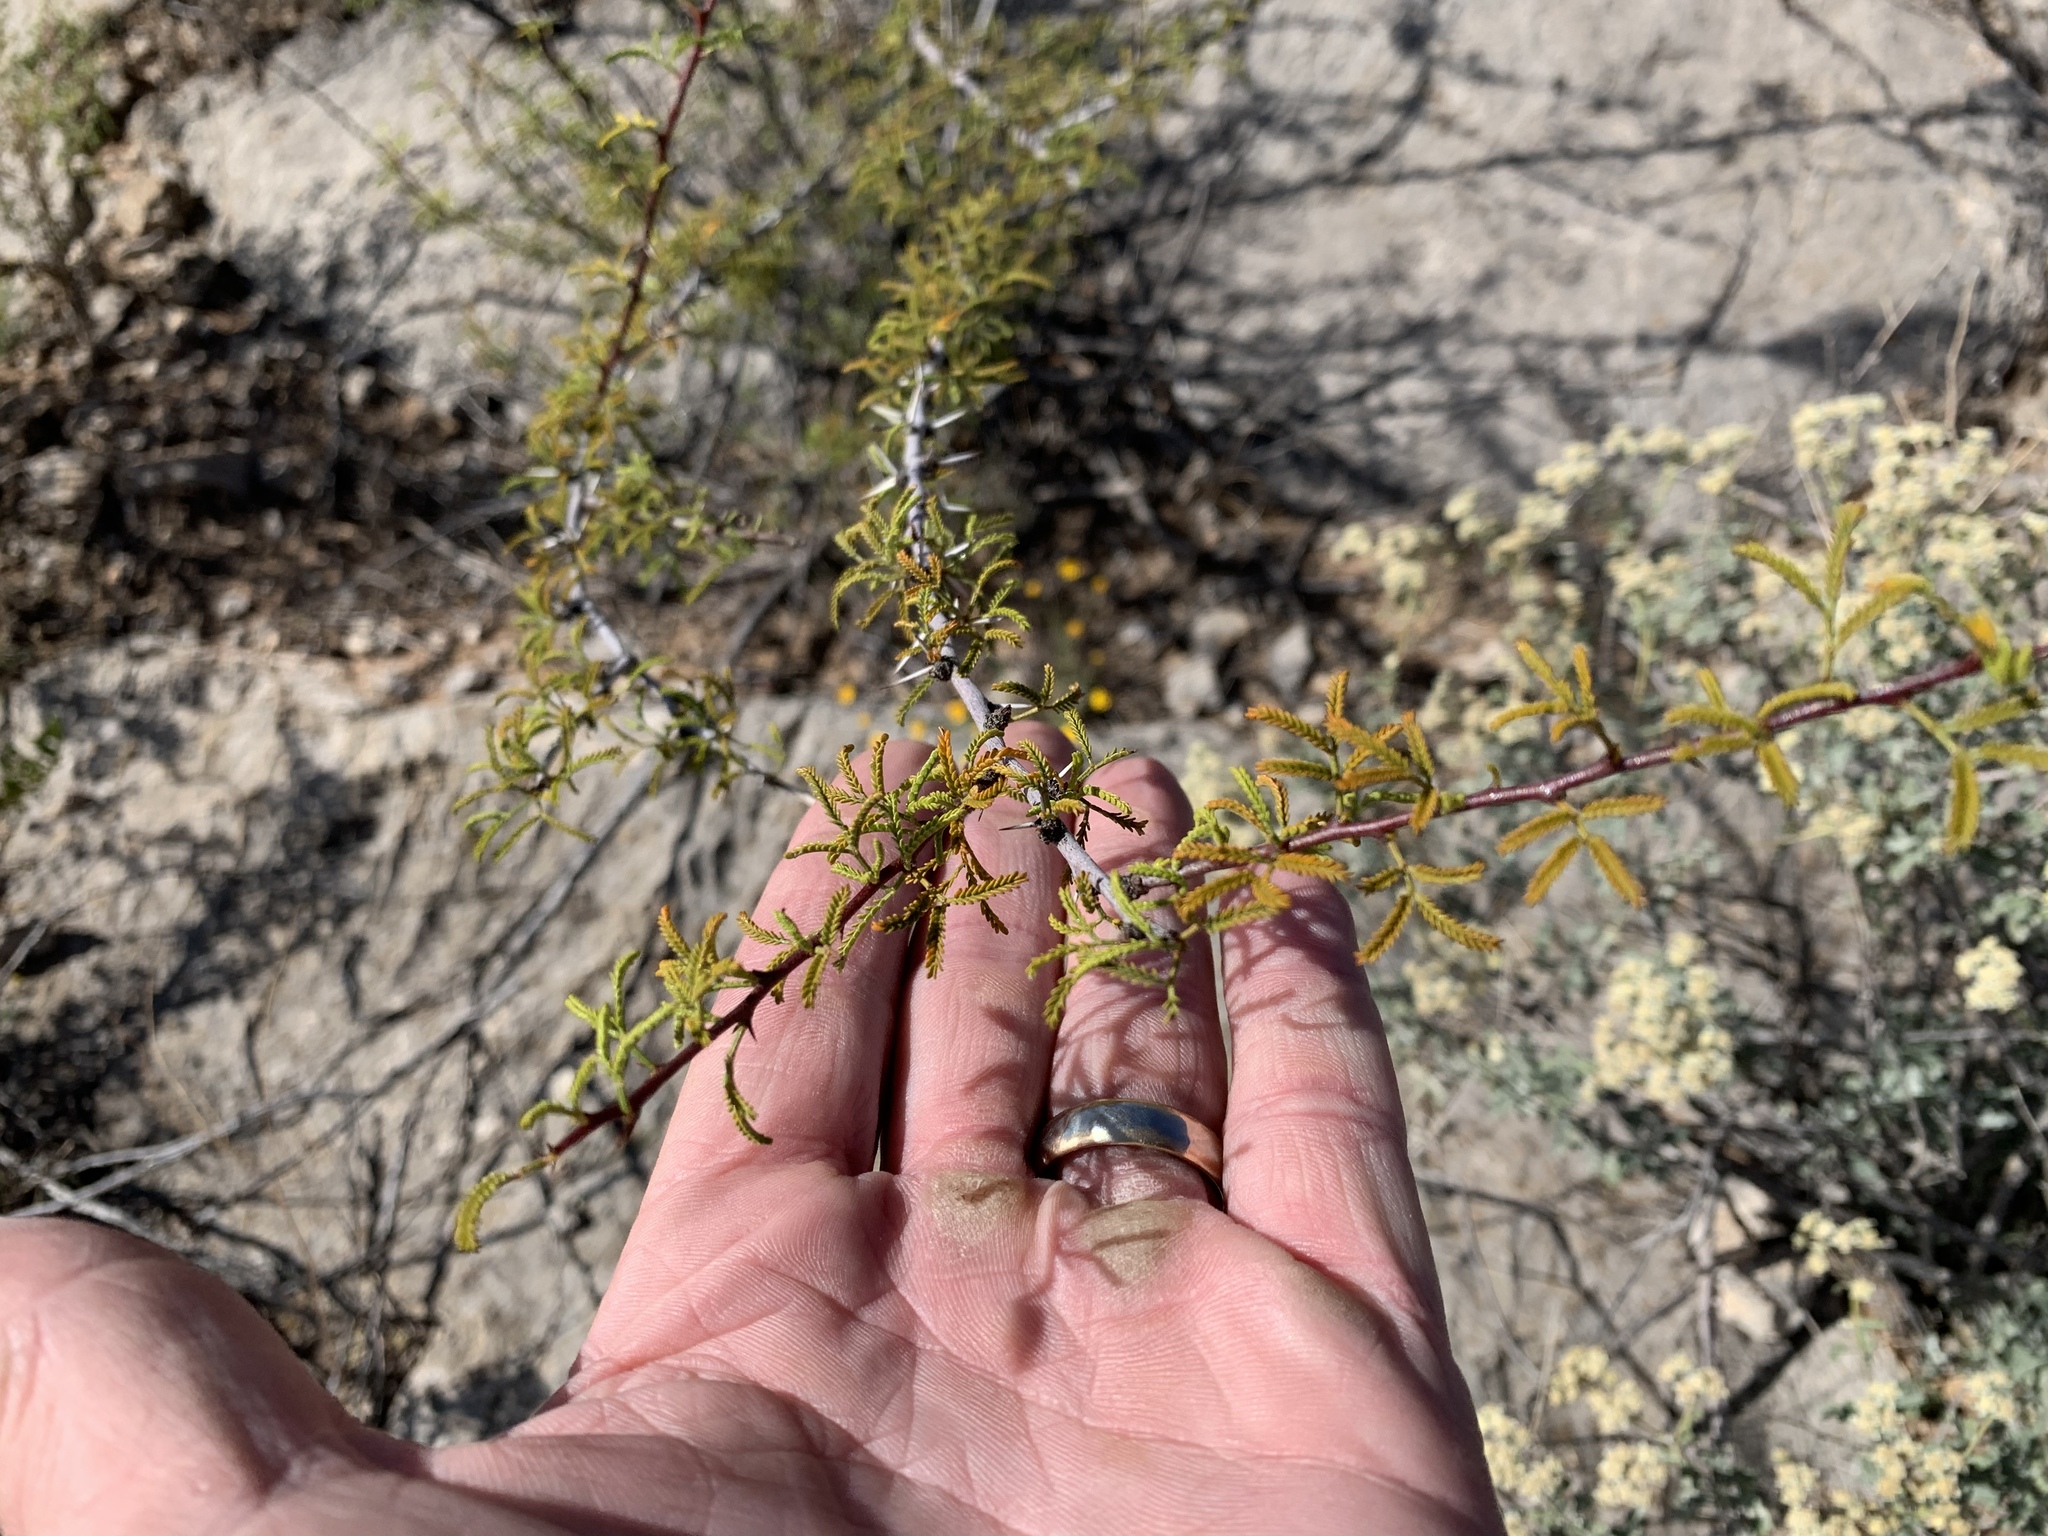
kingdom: Plantae
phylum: Tracheophyta
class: Magnoliopsida
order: Fabales
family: Fabaceae
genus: Vachellia
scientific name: Vachellia constricta
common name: Mescat acacia
